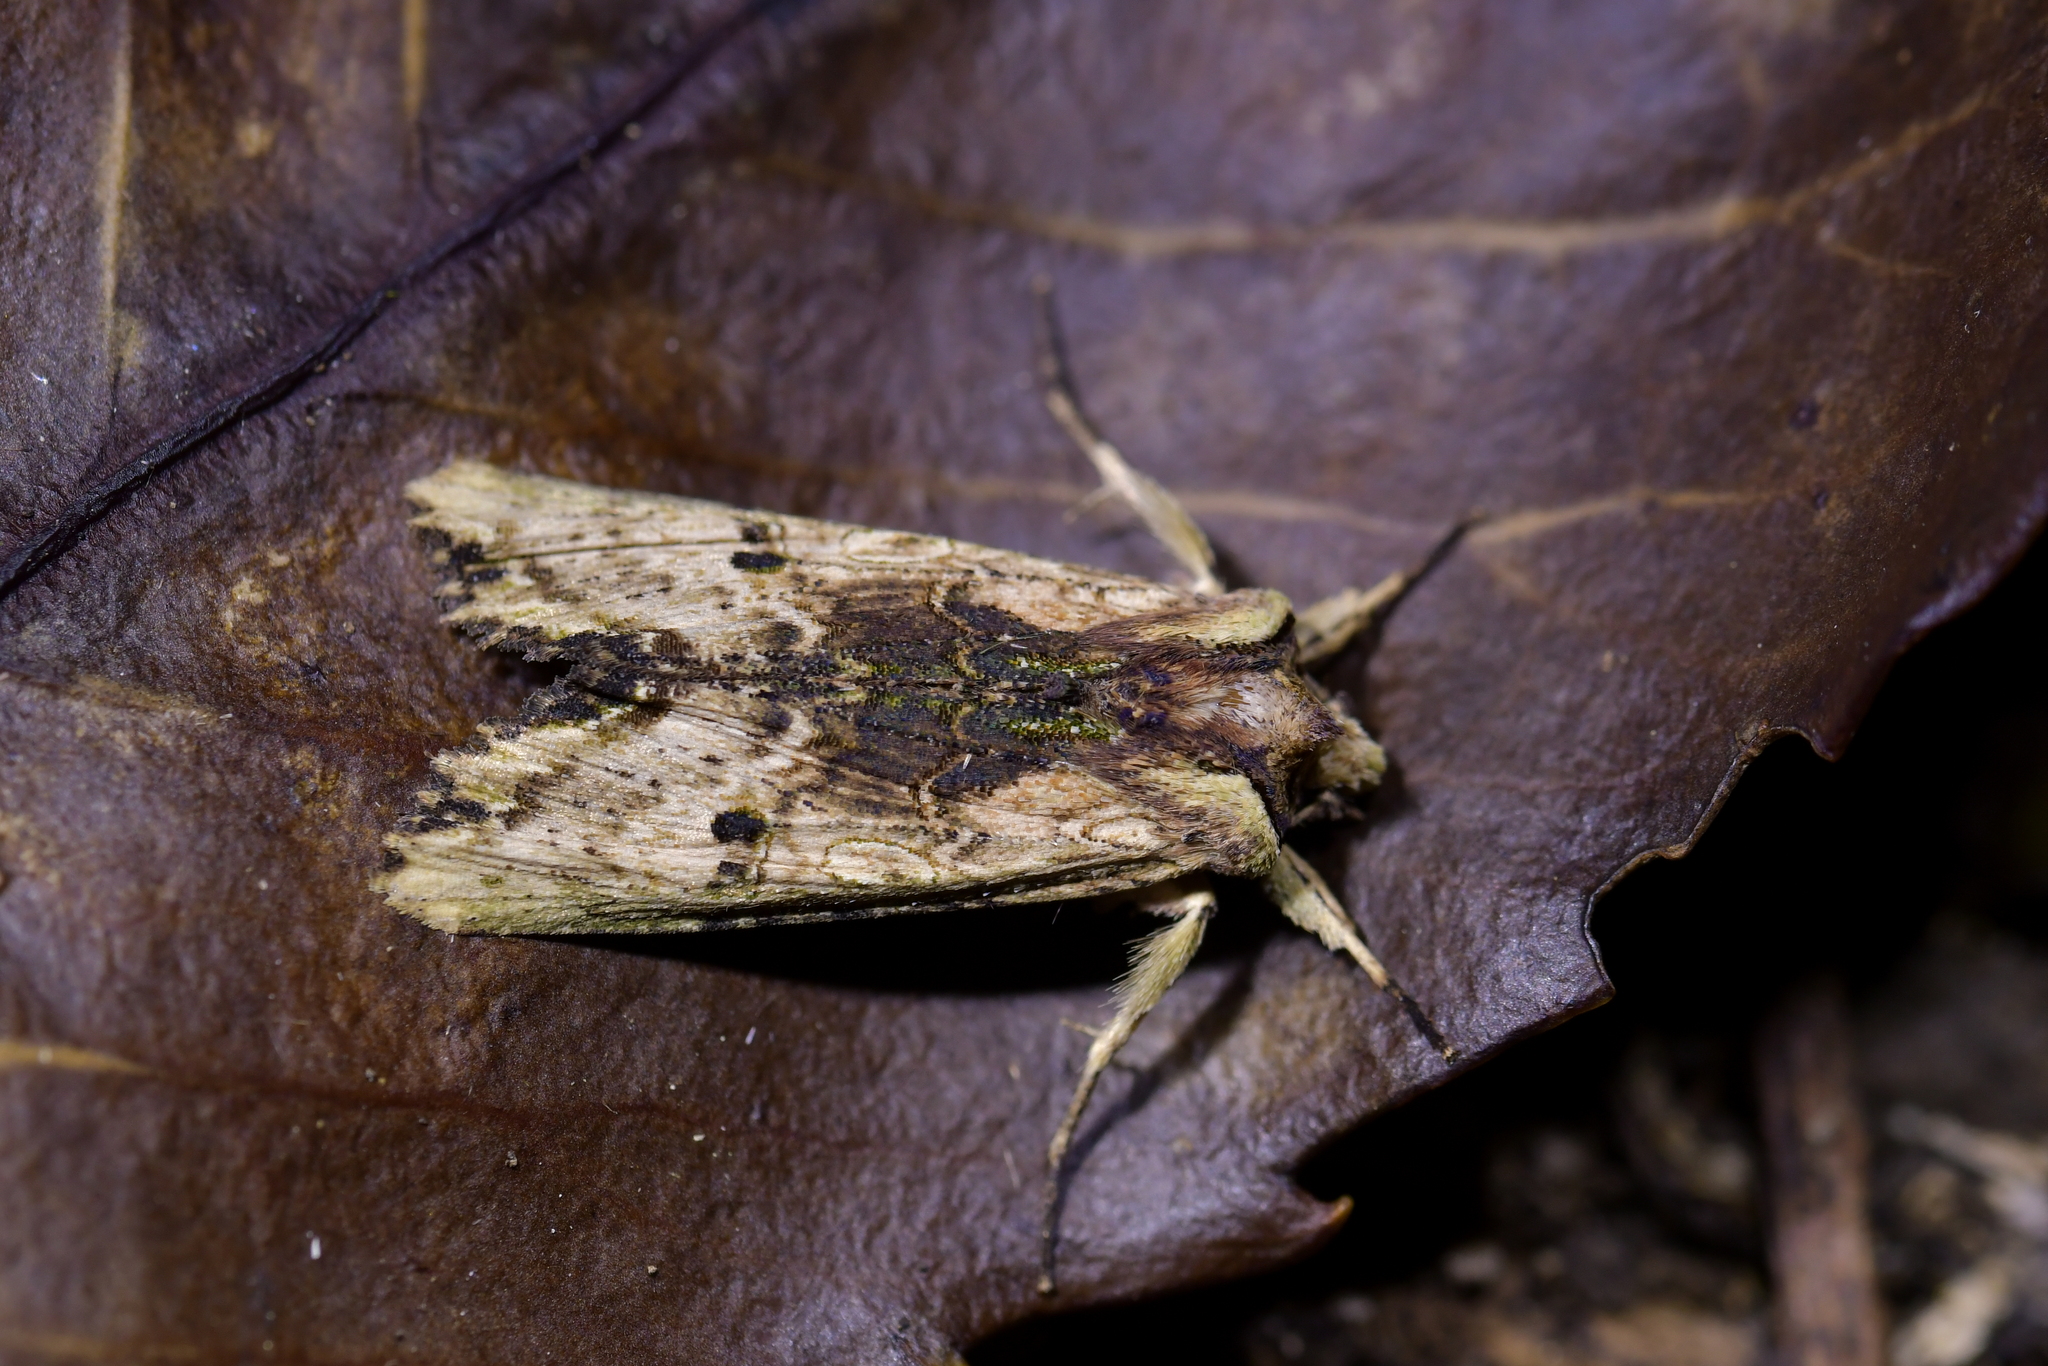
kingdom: Animalia
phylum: Arthropoda
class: Insecta
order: Lepidoptera
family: Noctuidae
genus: Meterana
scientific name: Meterana coeleno
